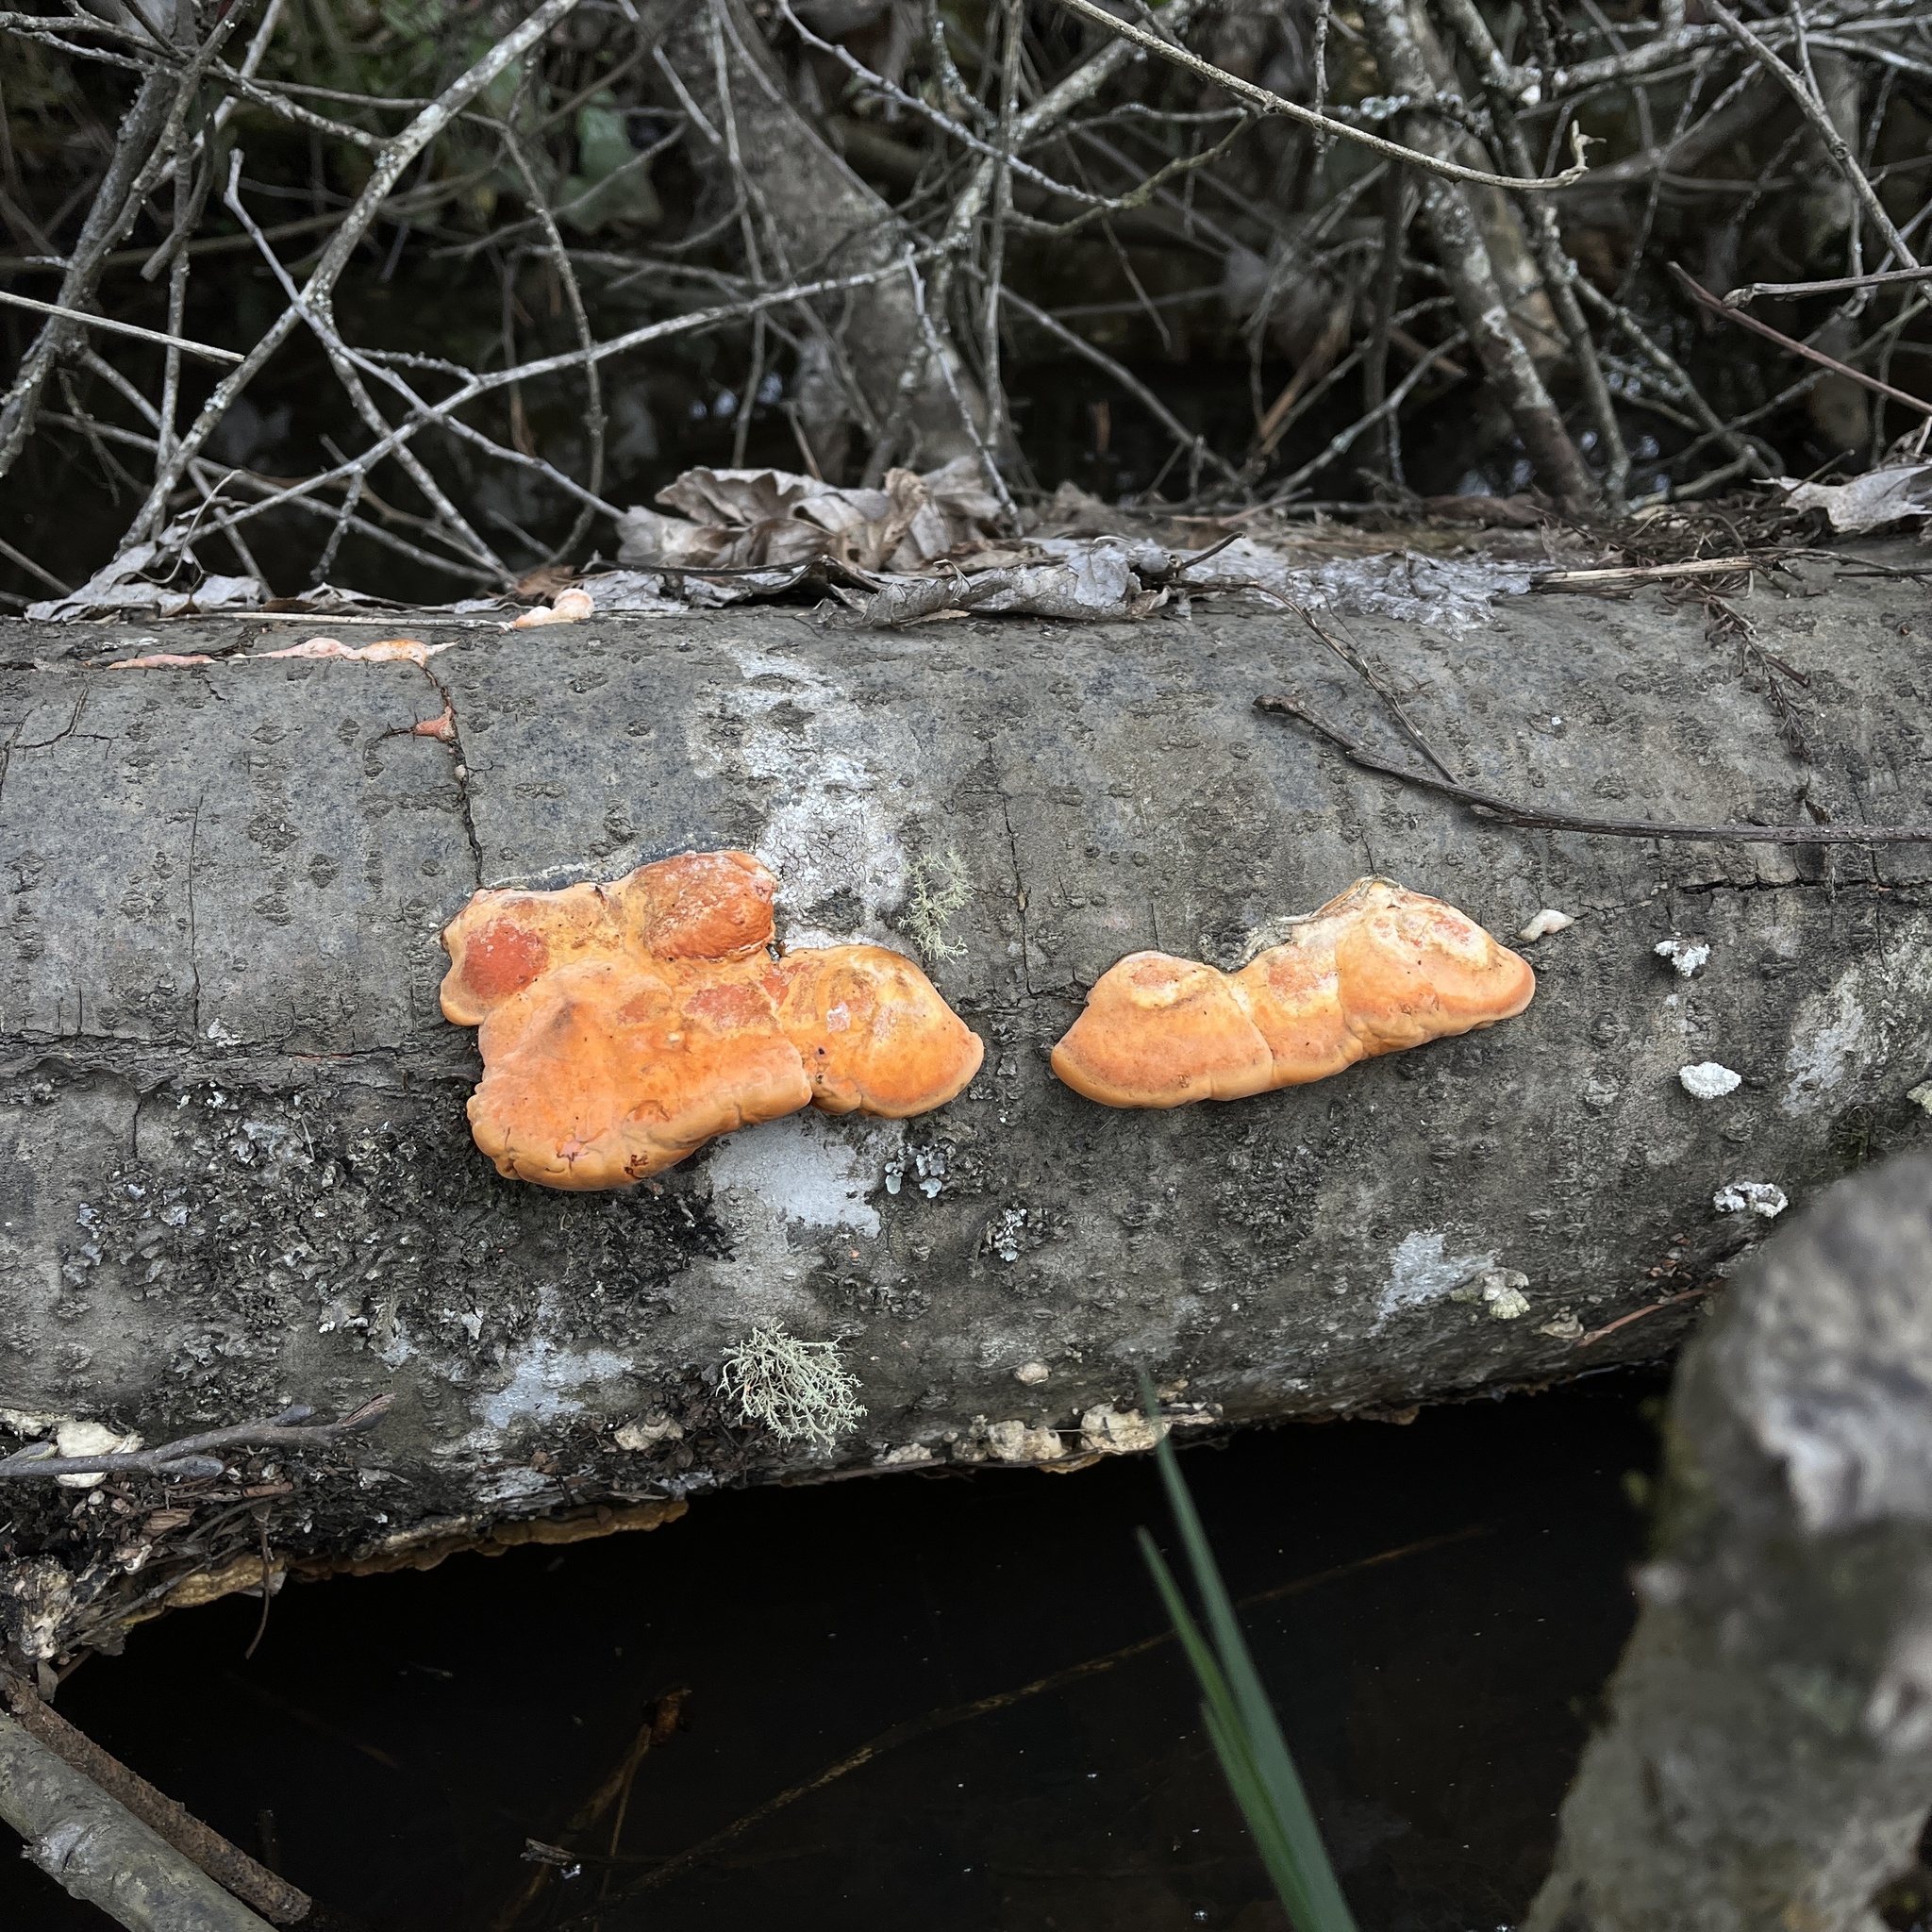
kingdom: Fungi
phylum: Basidiomycota
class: Agaricomycetes
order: Polyporales
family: Polyporaceae
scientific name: Polyporaceae
